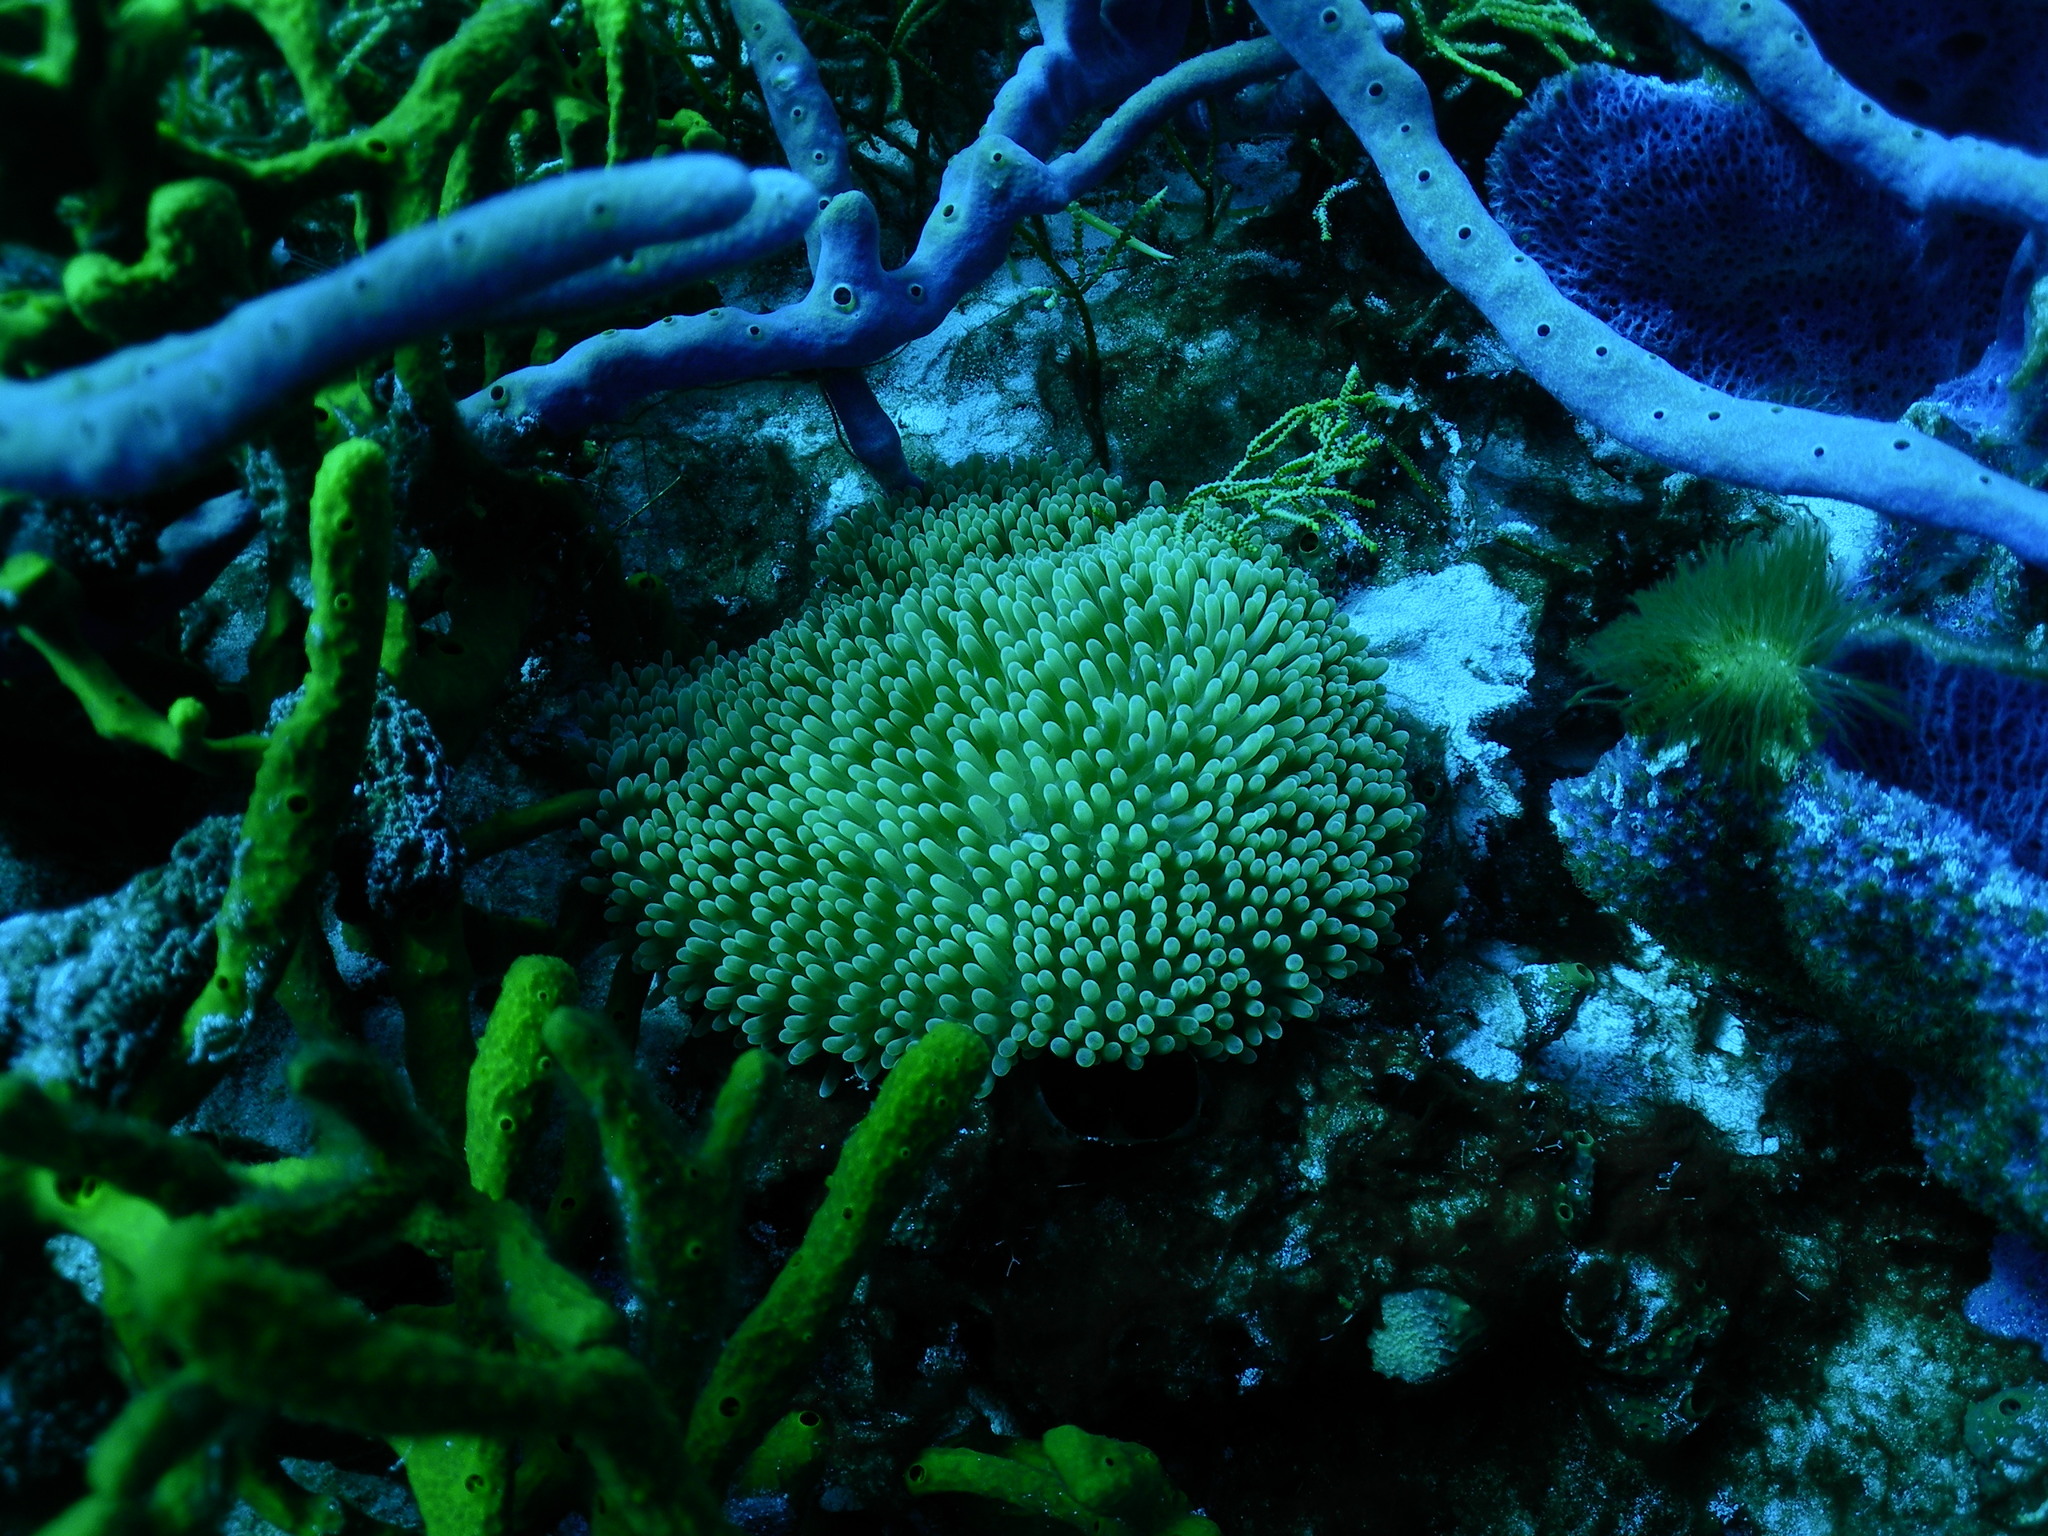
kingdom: Animalia
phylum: Cnidaria
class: Anthozoa
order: Actiniaria
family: Stichodactylidae
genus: Stichodactyla
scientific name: Stichodactyla helianthus
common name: Sun anemone
